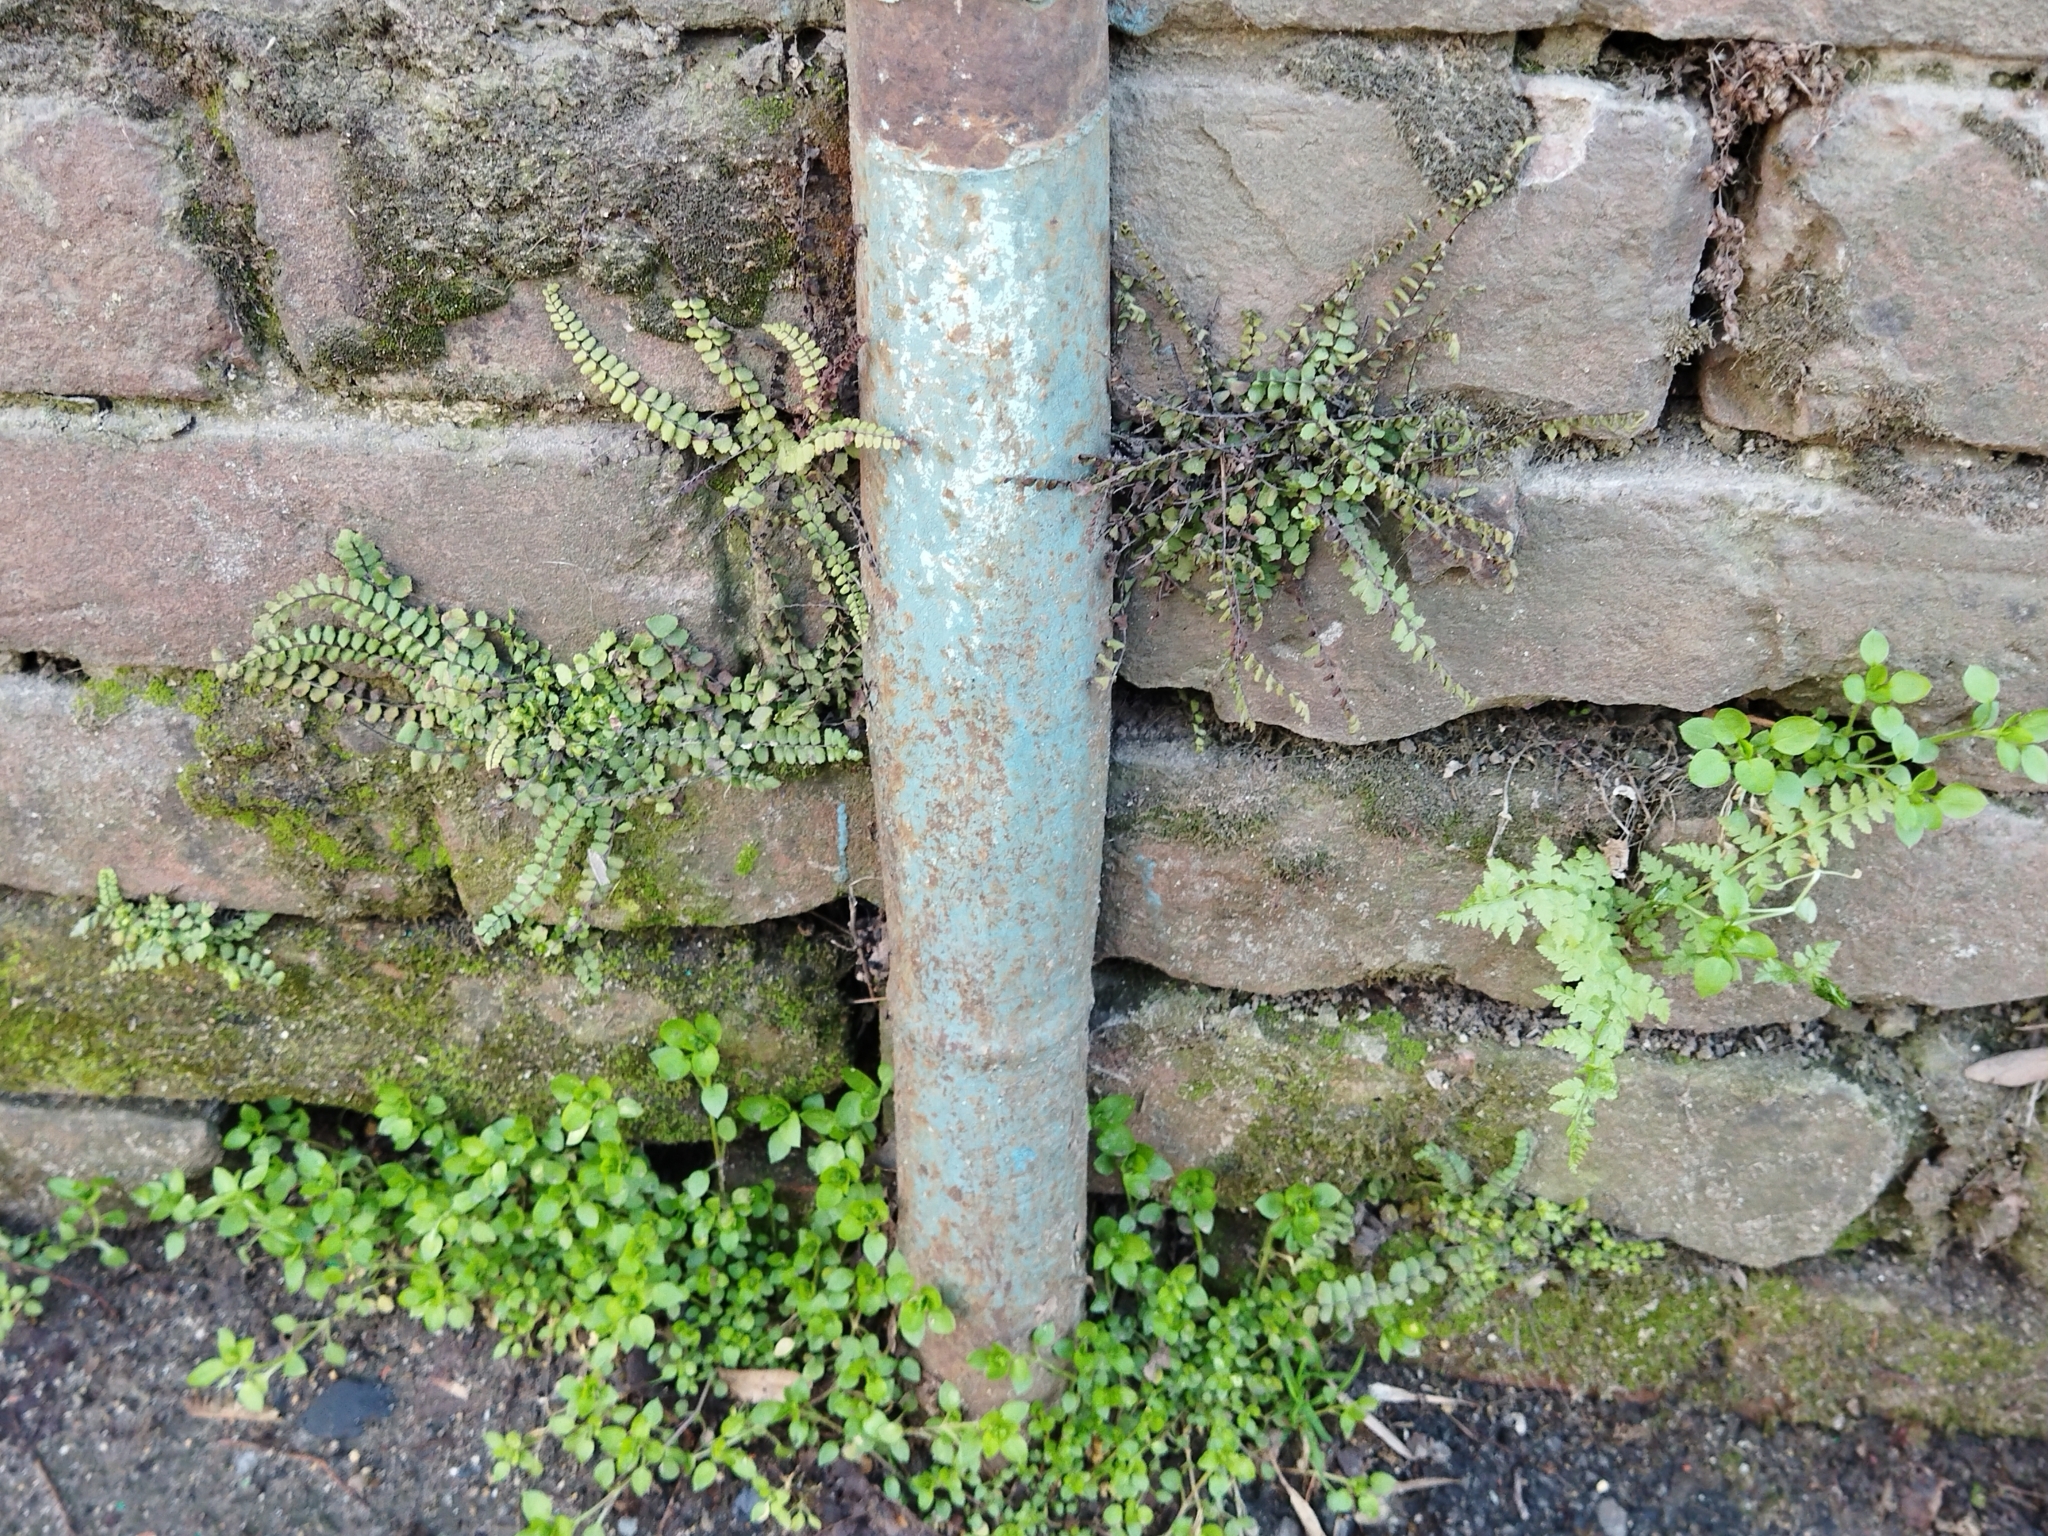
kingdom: Plantae
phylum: Tracheophyta
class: Polypodiopsida
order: Polypodiales
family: Aspleniaceae
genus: Asplenium
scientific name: Asplenium trichomanes
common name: Maidenhair spleenwort
